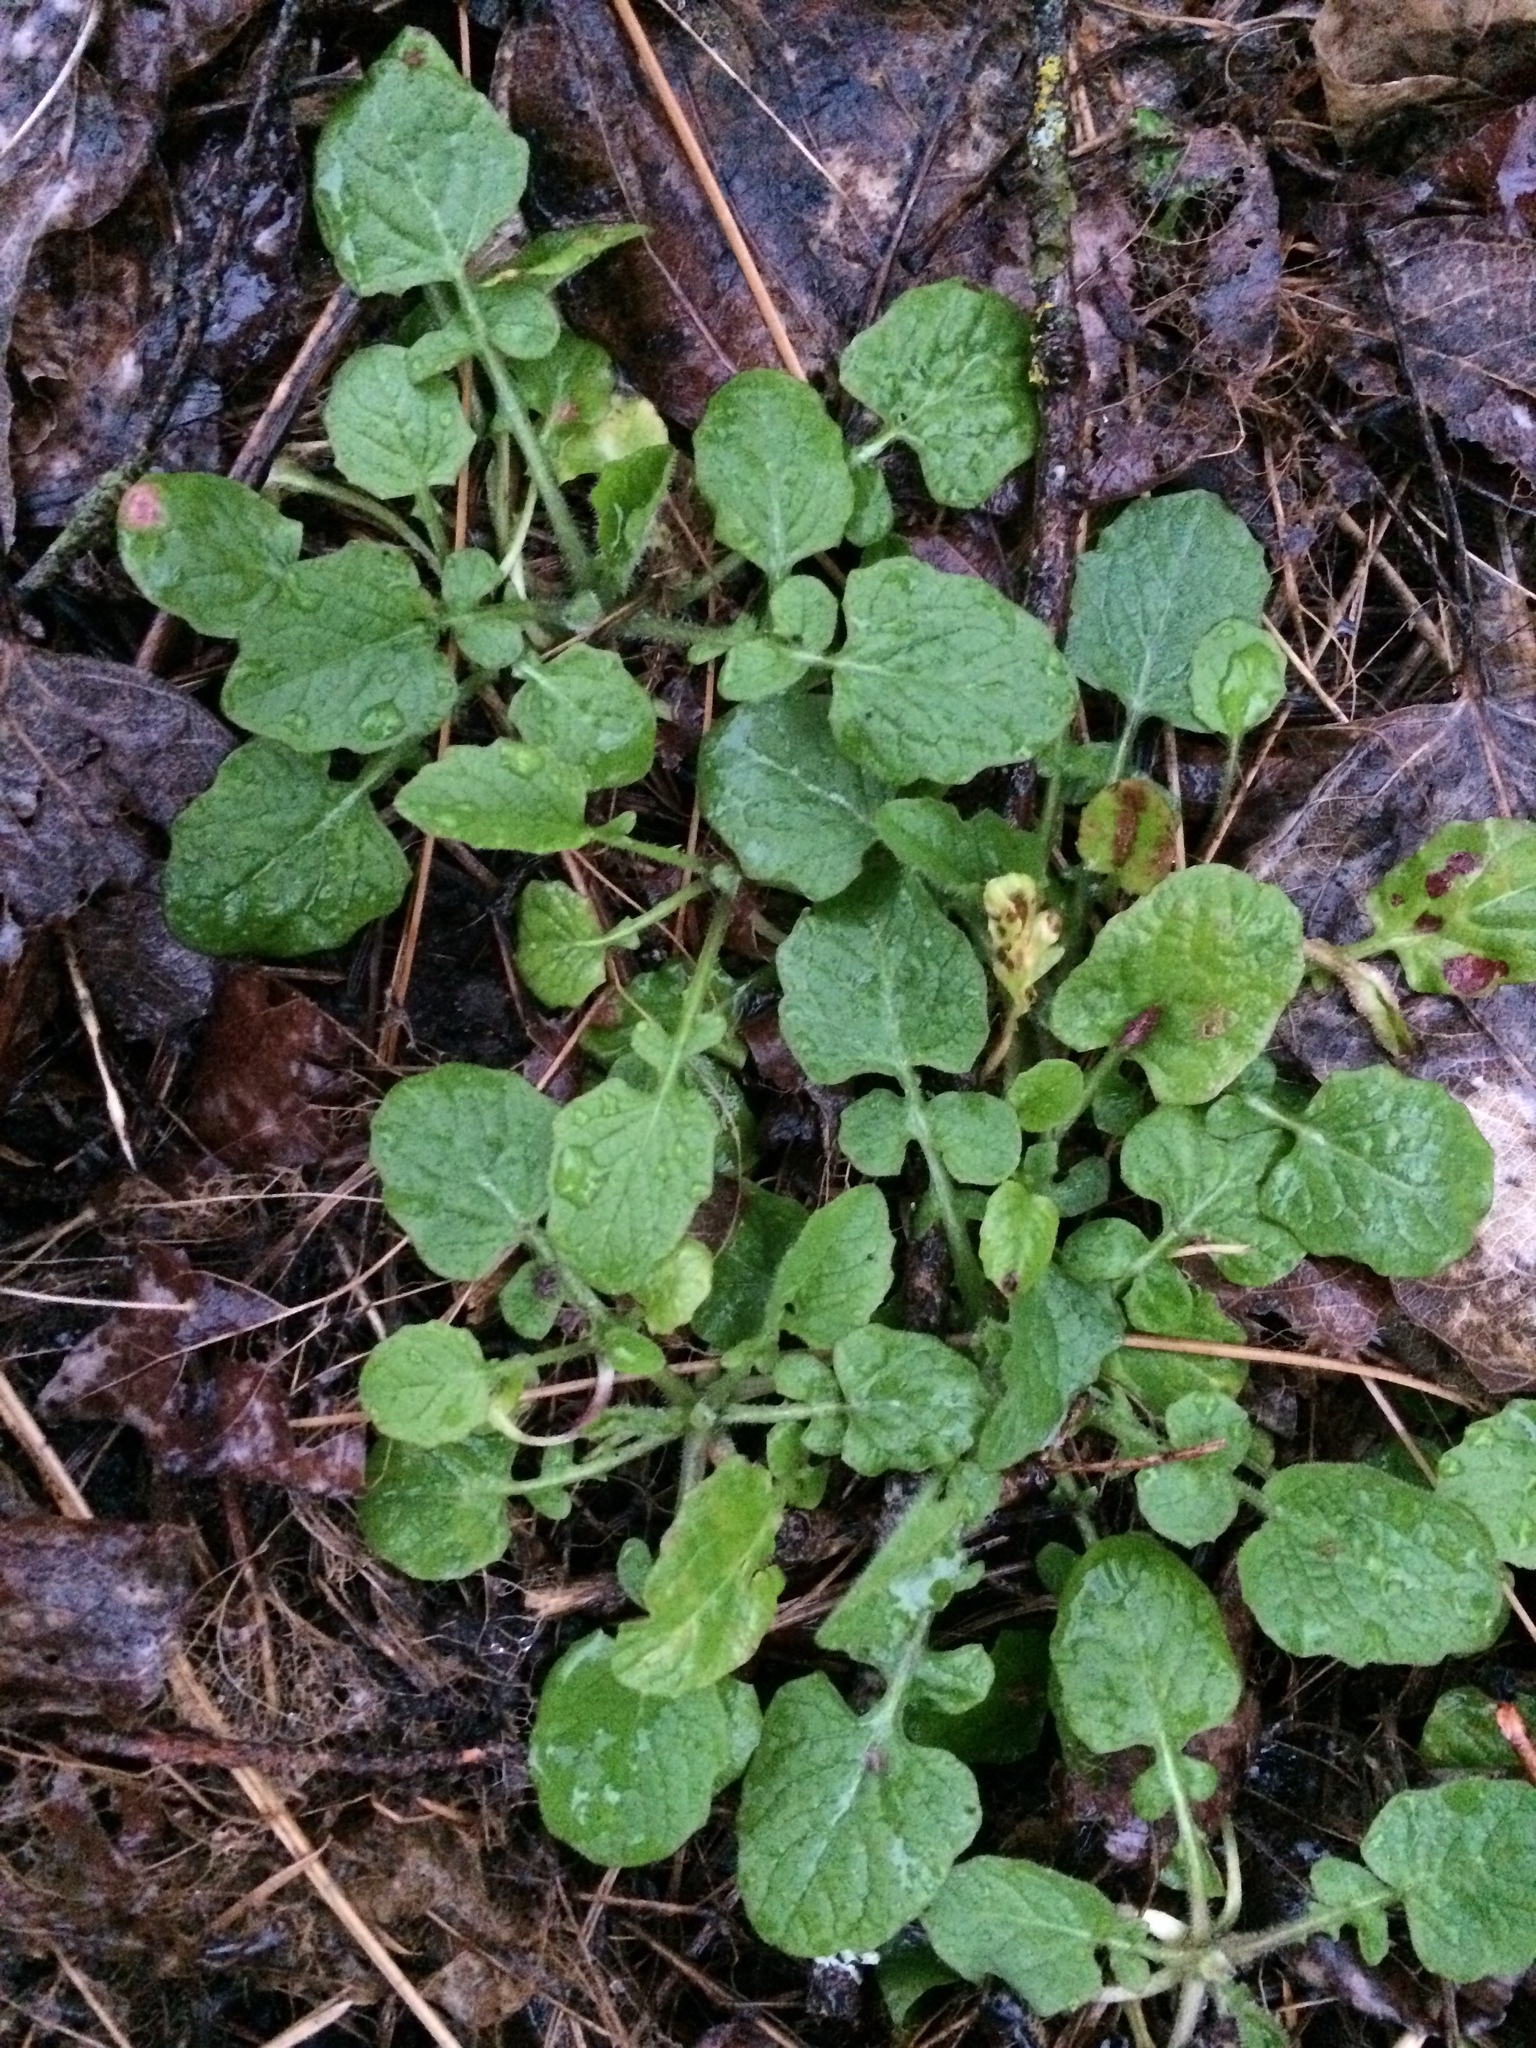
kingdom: Plantae
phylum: Tracheophyta
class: Magnoliopsida
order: Asterales
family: Asteraceae
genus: Lapsana
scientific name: Lapsana communis
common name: Nipplewort
